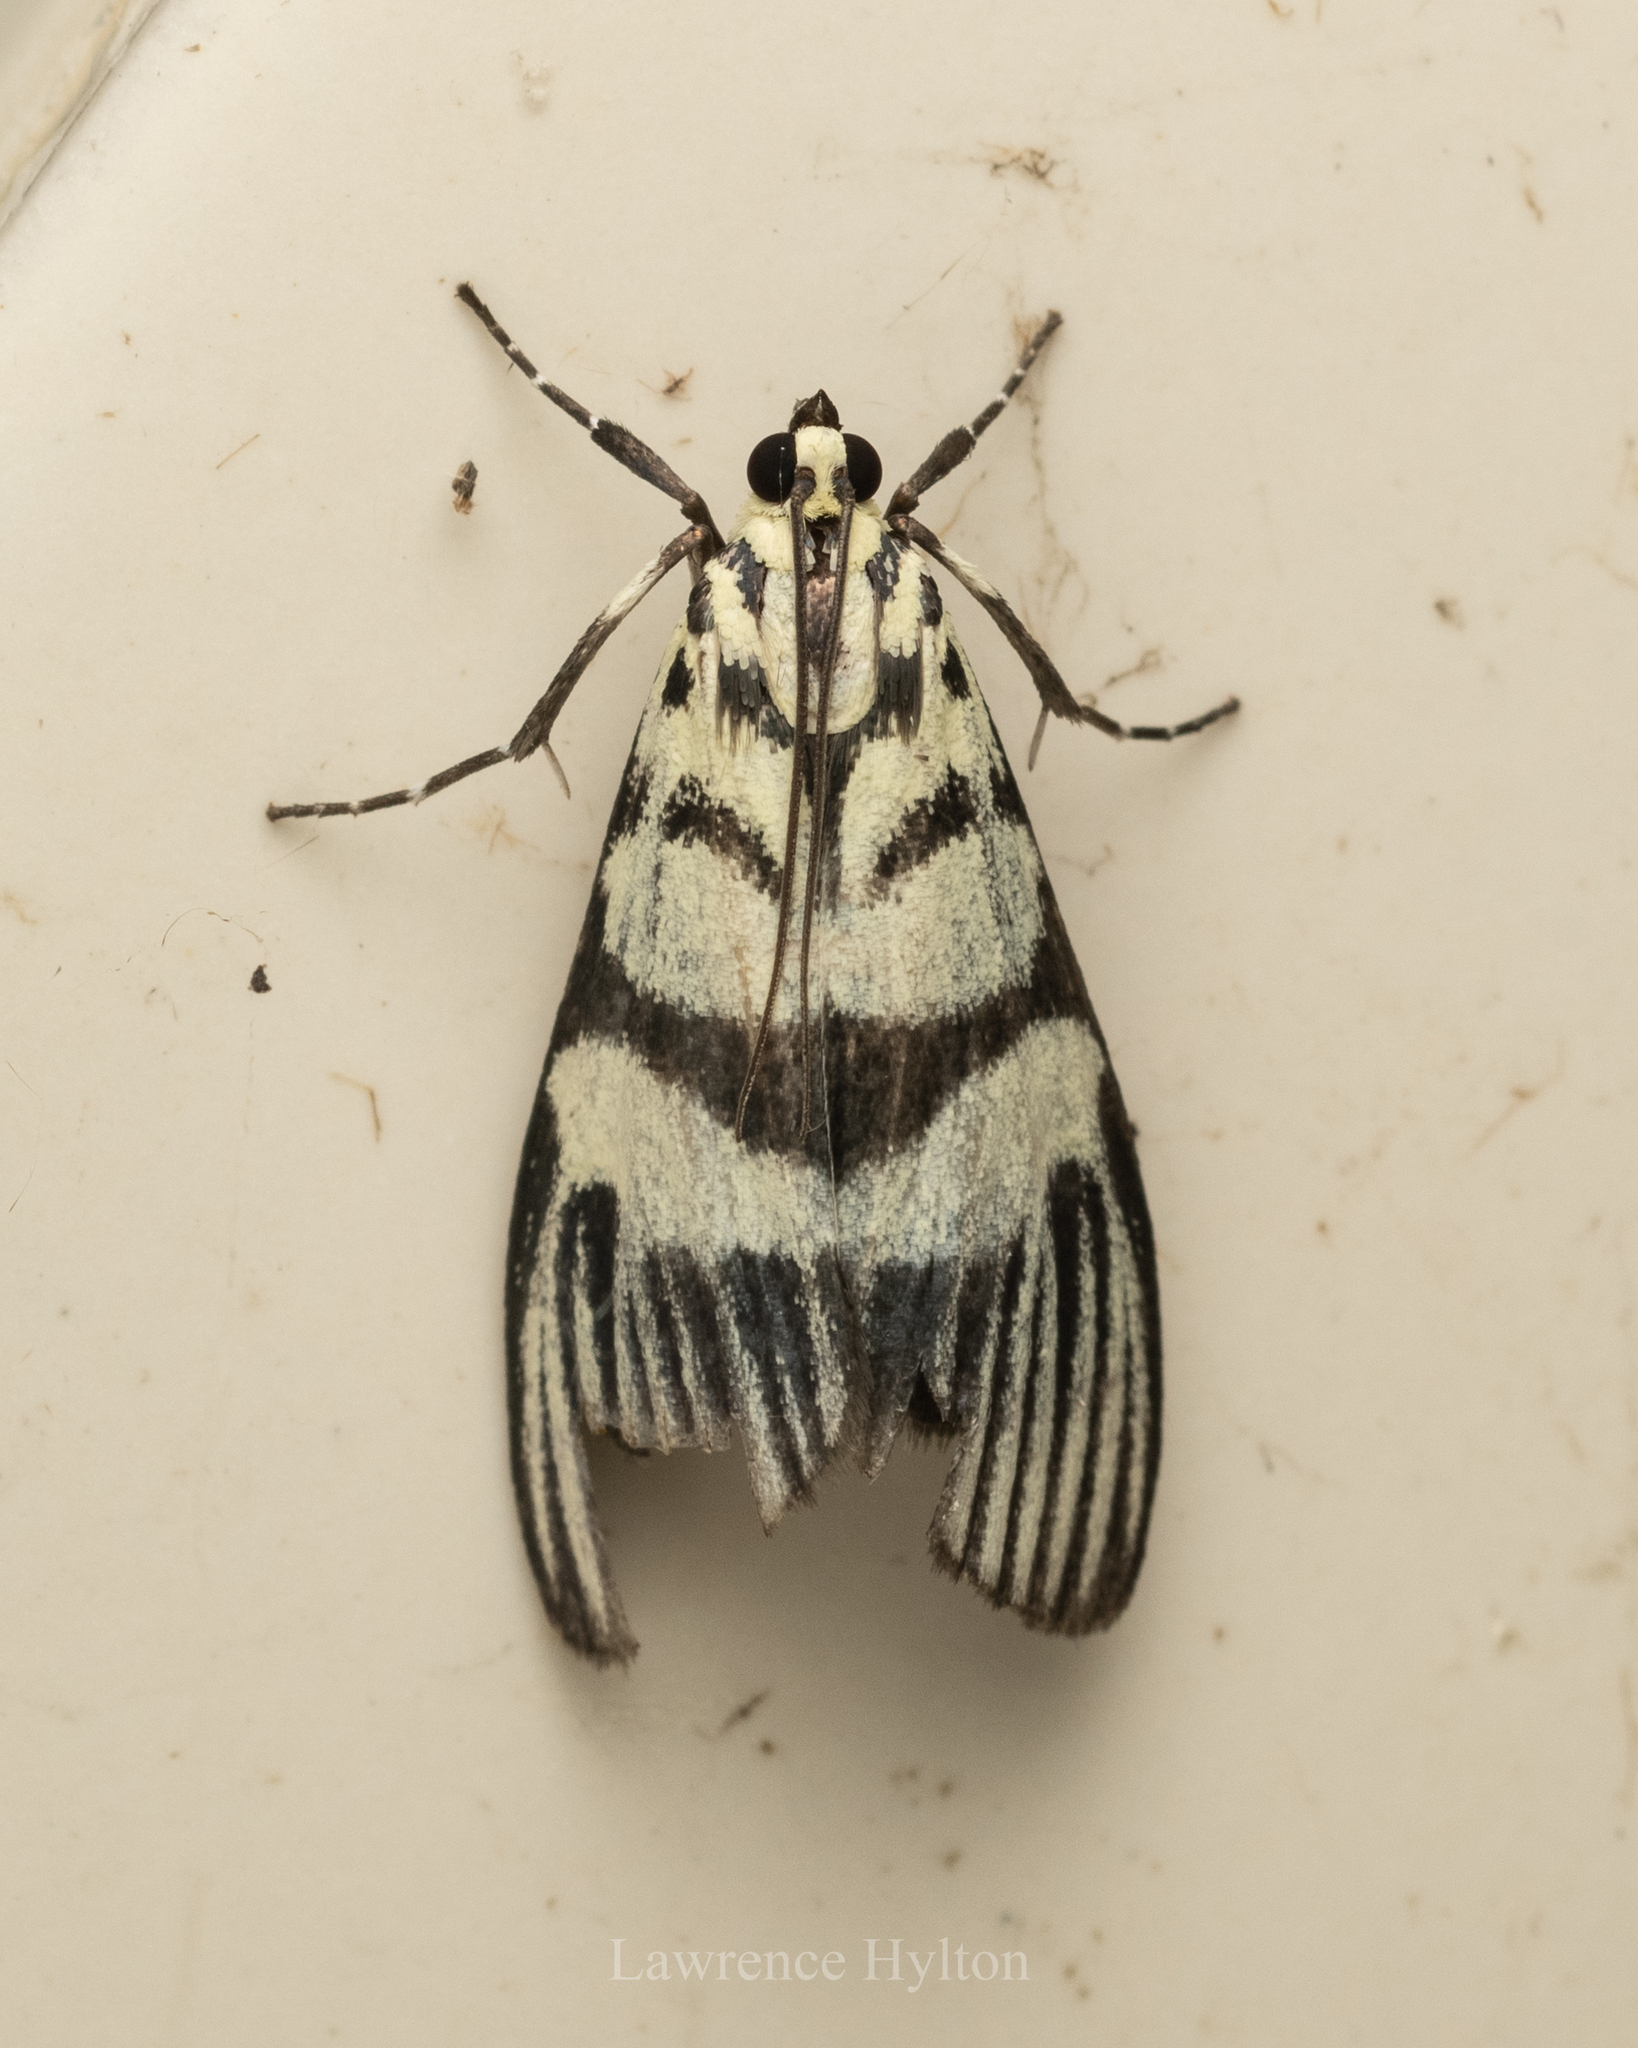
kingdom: Animalia
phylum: Arthropoda
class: Insecta
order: Lepidoptera
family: Crambidae
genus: Heortia
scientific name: Heortia vitessoides
